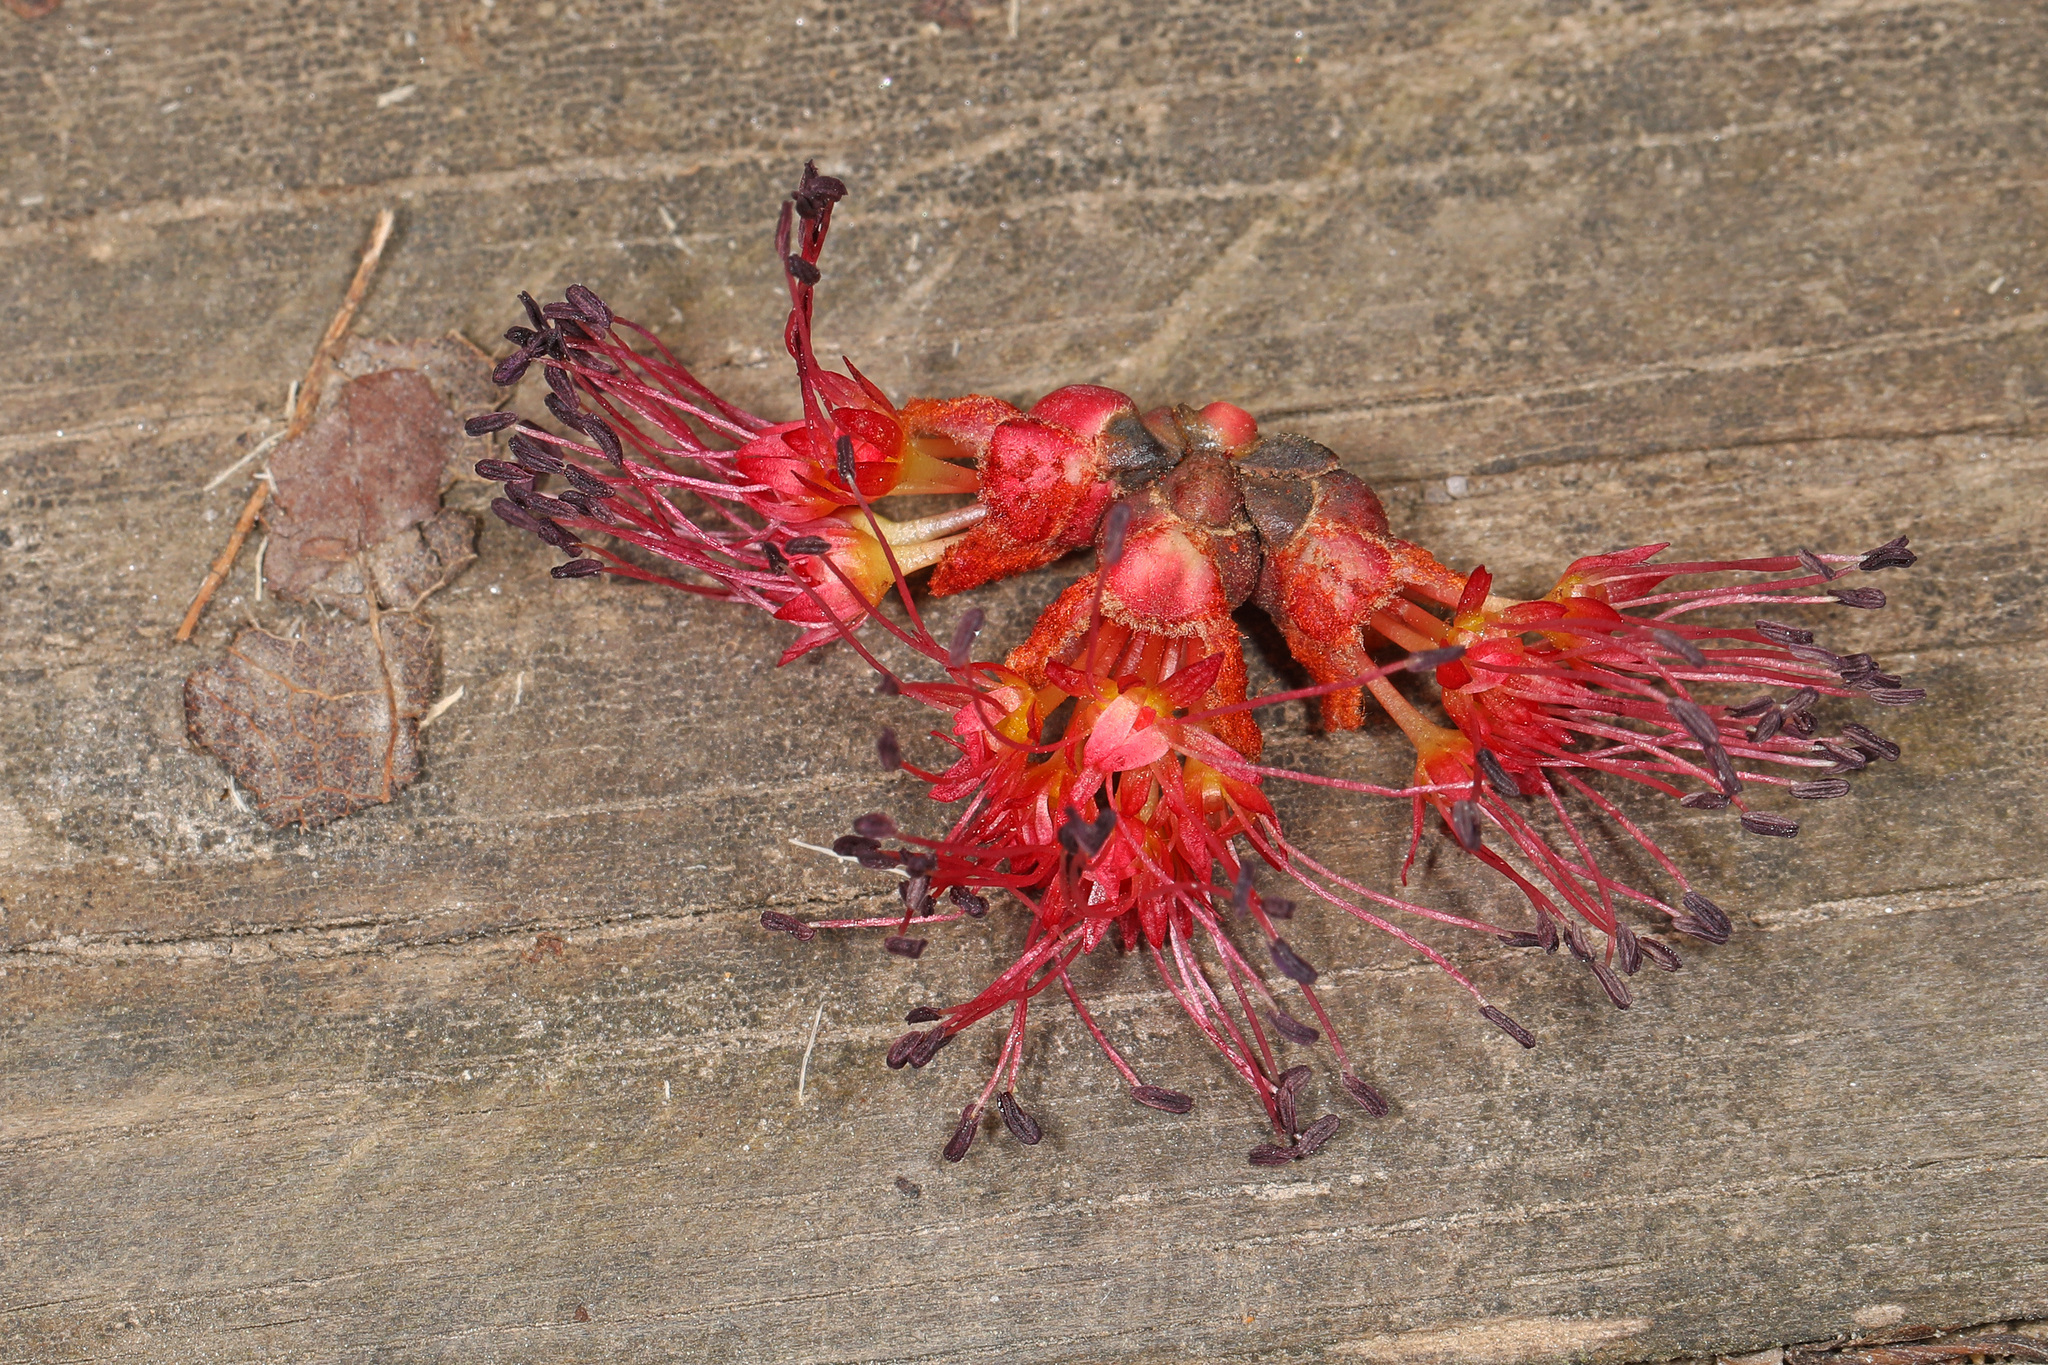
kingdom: Plantae
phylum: Tracheophyta
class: Magnoliopsida
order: Sapindales
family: Sapindaceae
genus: Acer
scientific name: Acer rubrum
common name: Red maple
